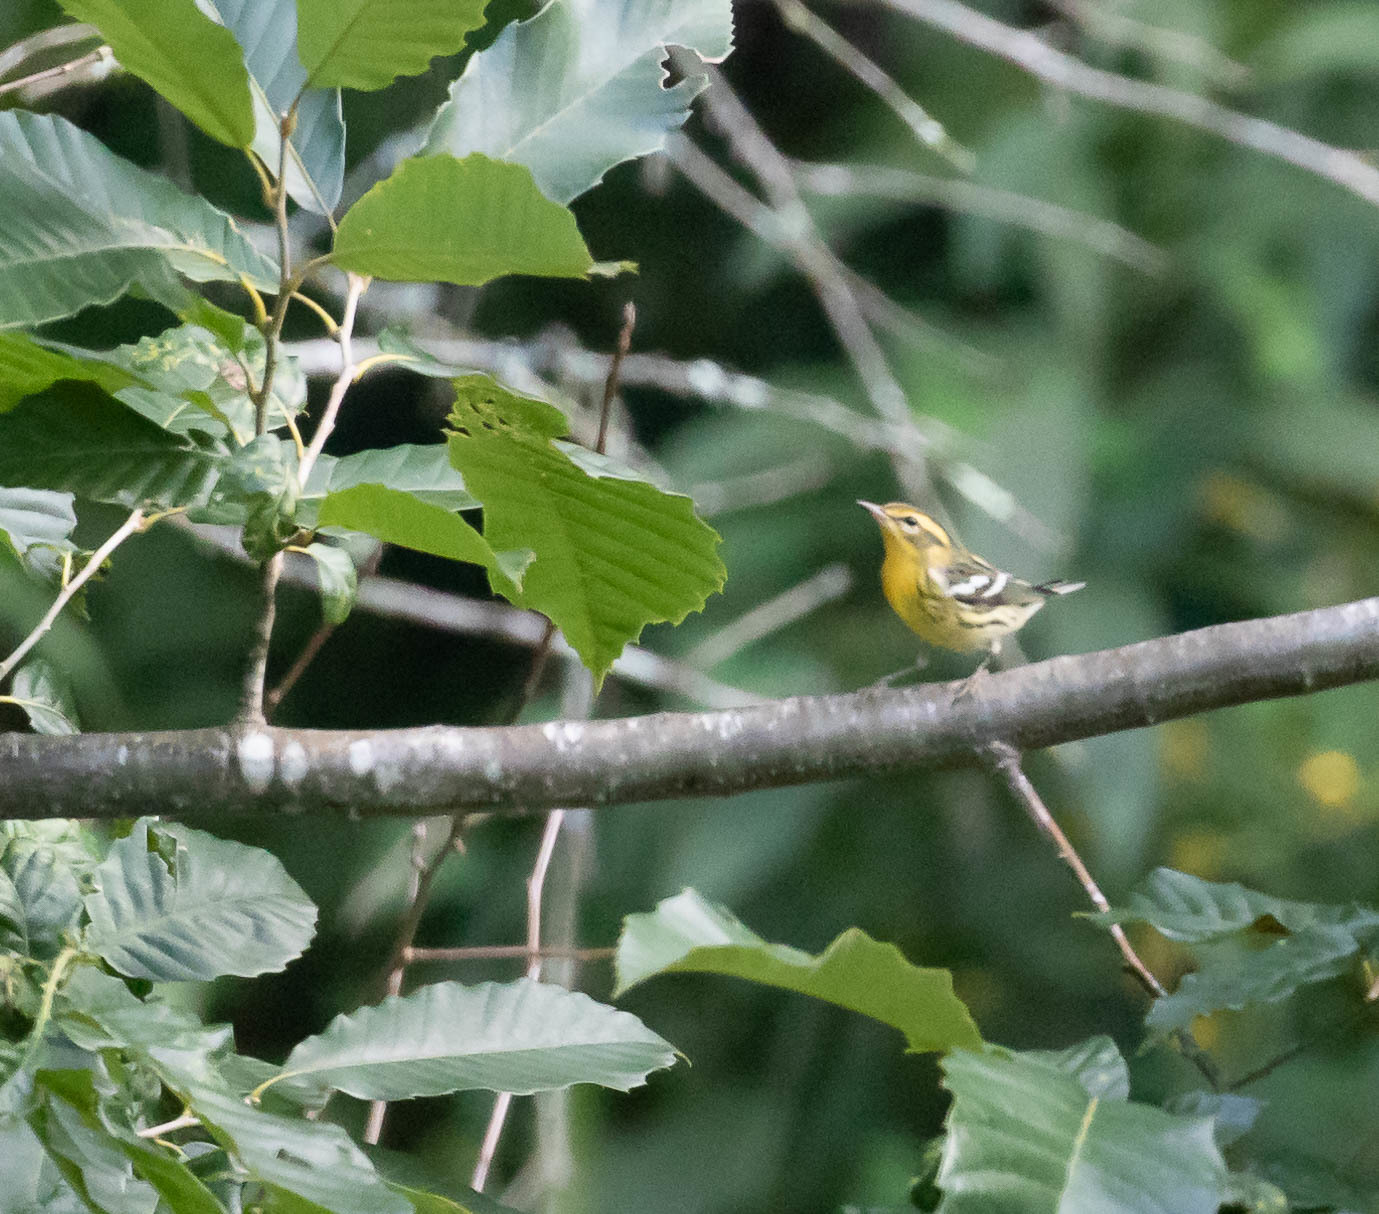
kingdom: Animalia
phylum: Chordata
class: Aves
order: Passeriformes
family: Parulidae
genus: Setophaga
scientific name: Setophaga fusca
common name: Blackburnian warbler
